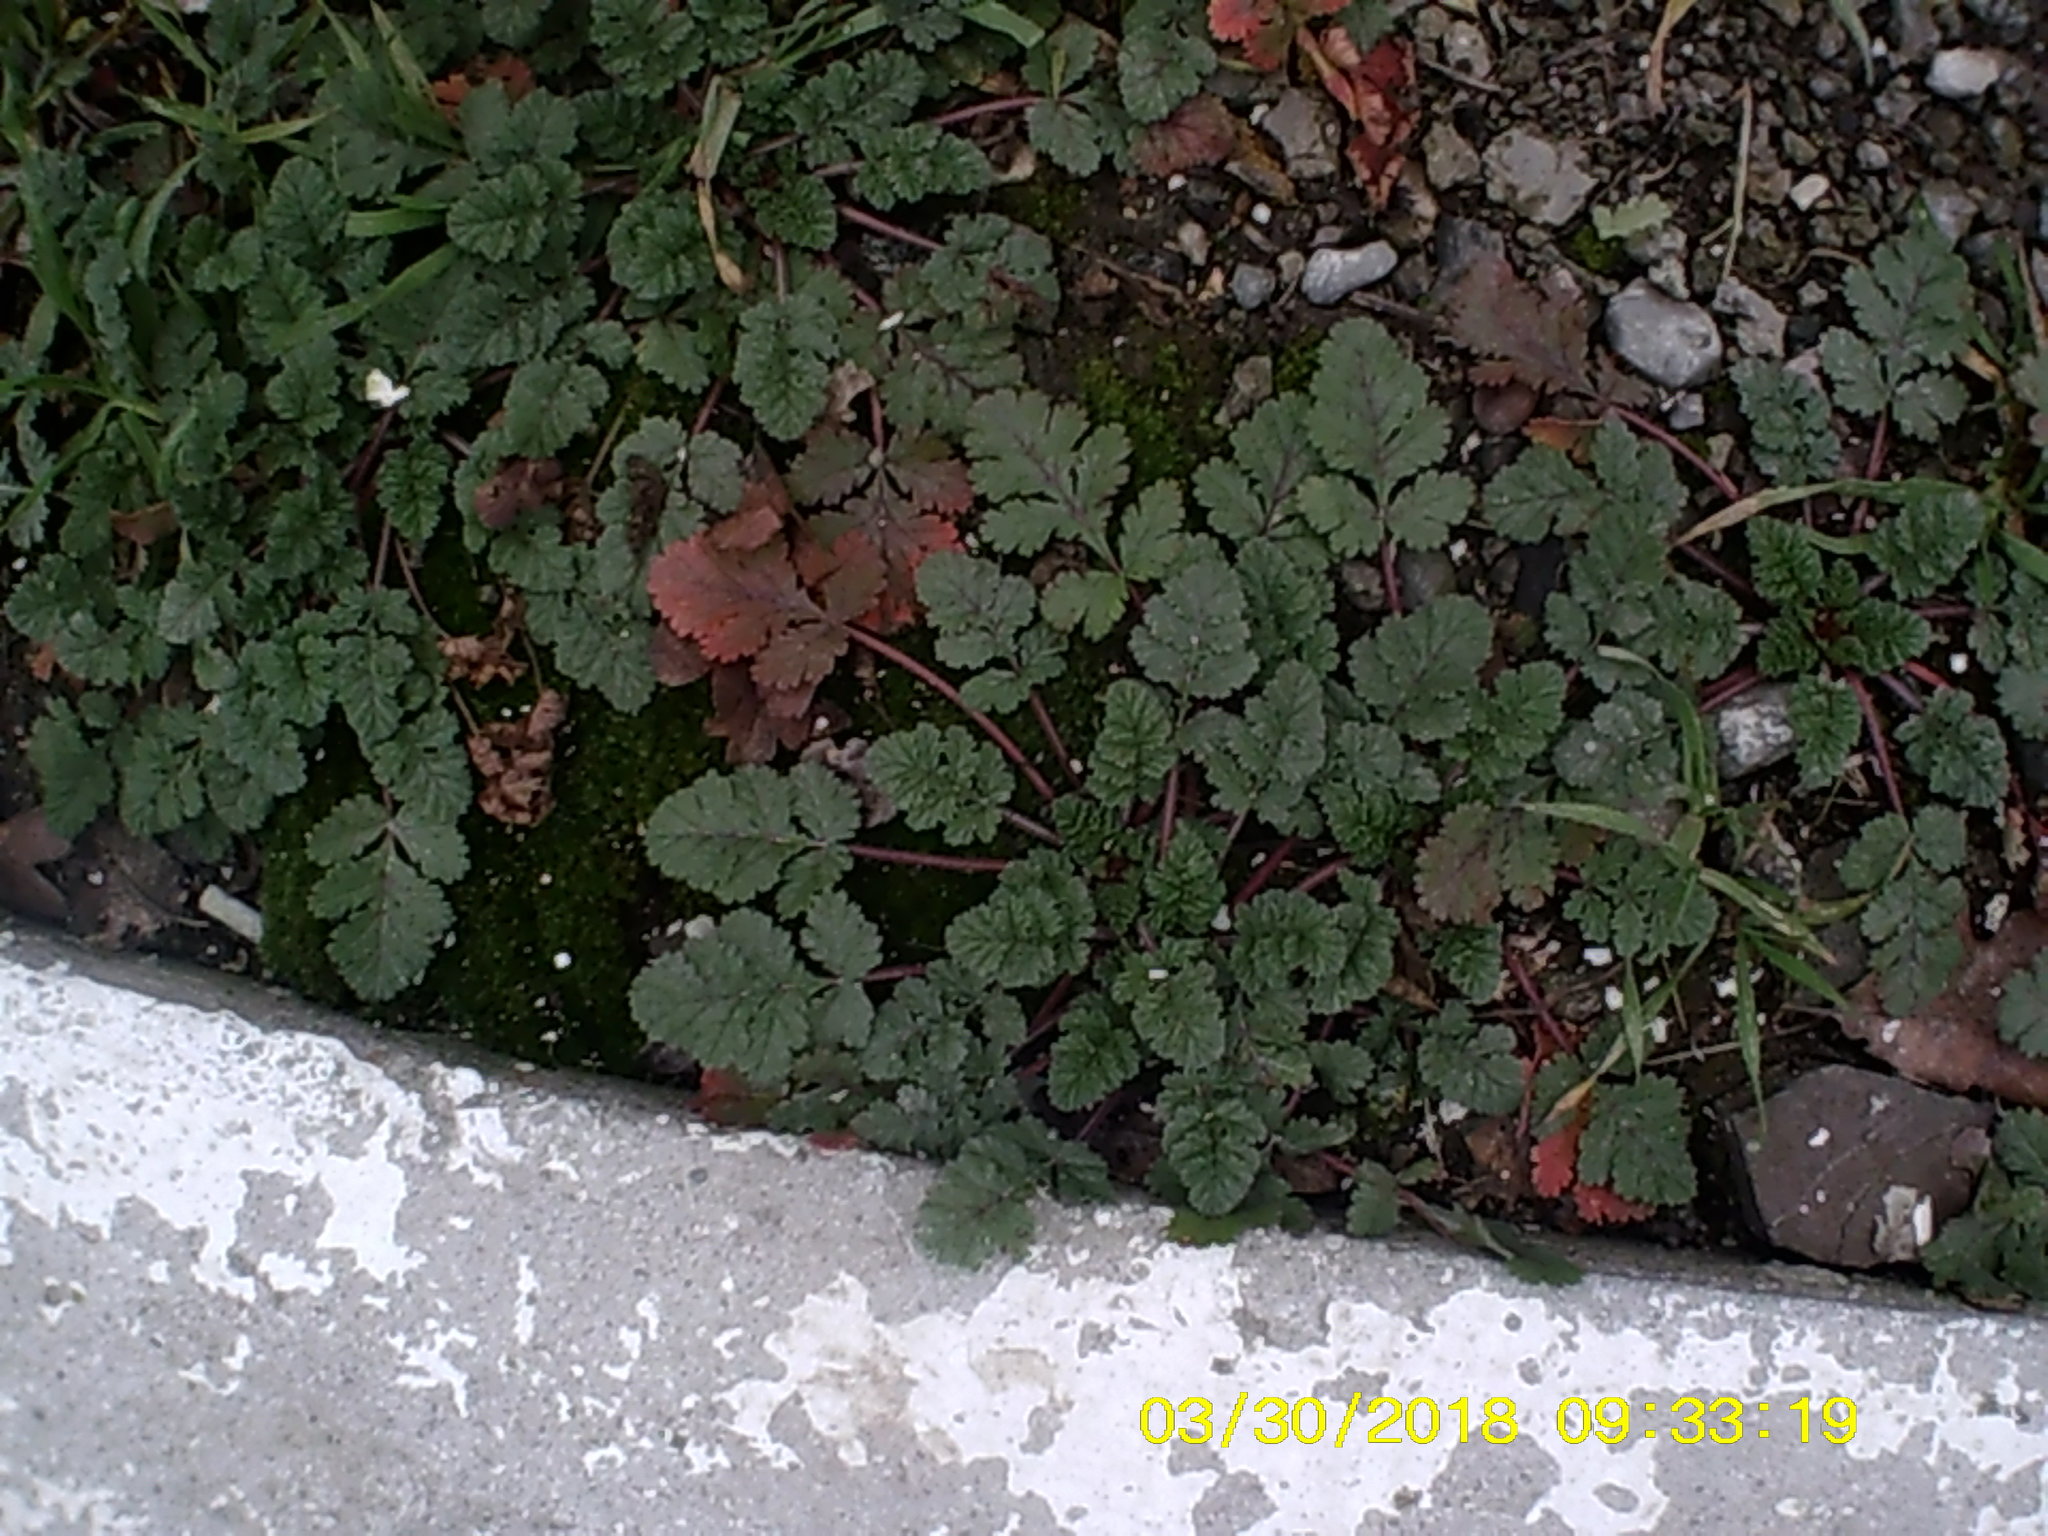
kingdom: Plantae
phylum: Tracheophyta
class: Magnoliopsida
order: Geraniales
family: Geraniaceae
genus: Erodium
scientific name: Erodium ciconium
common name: Common stork's bill
